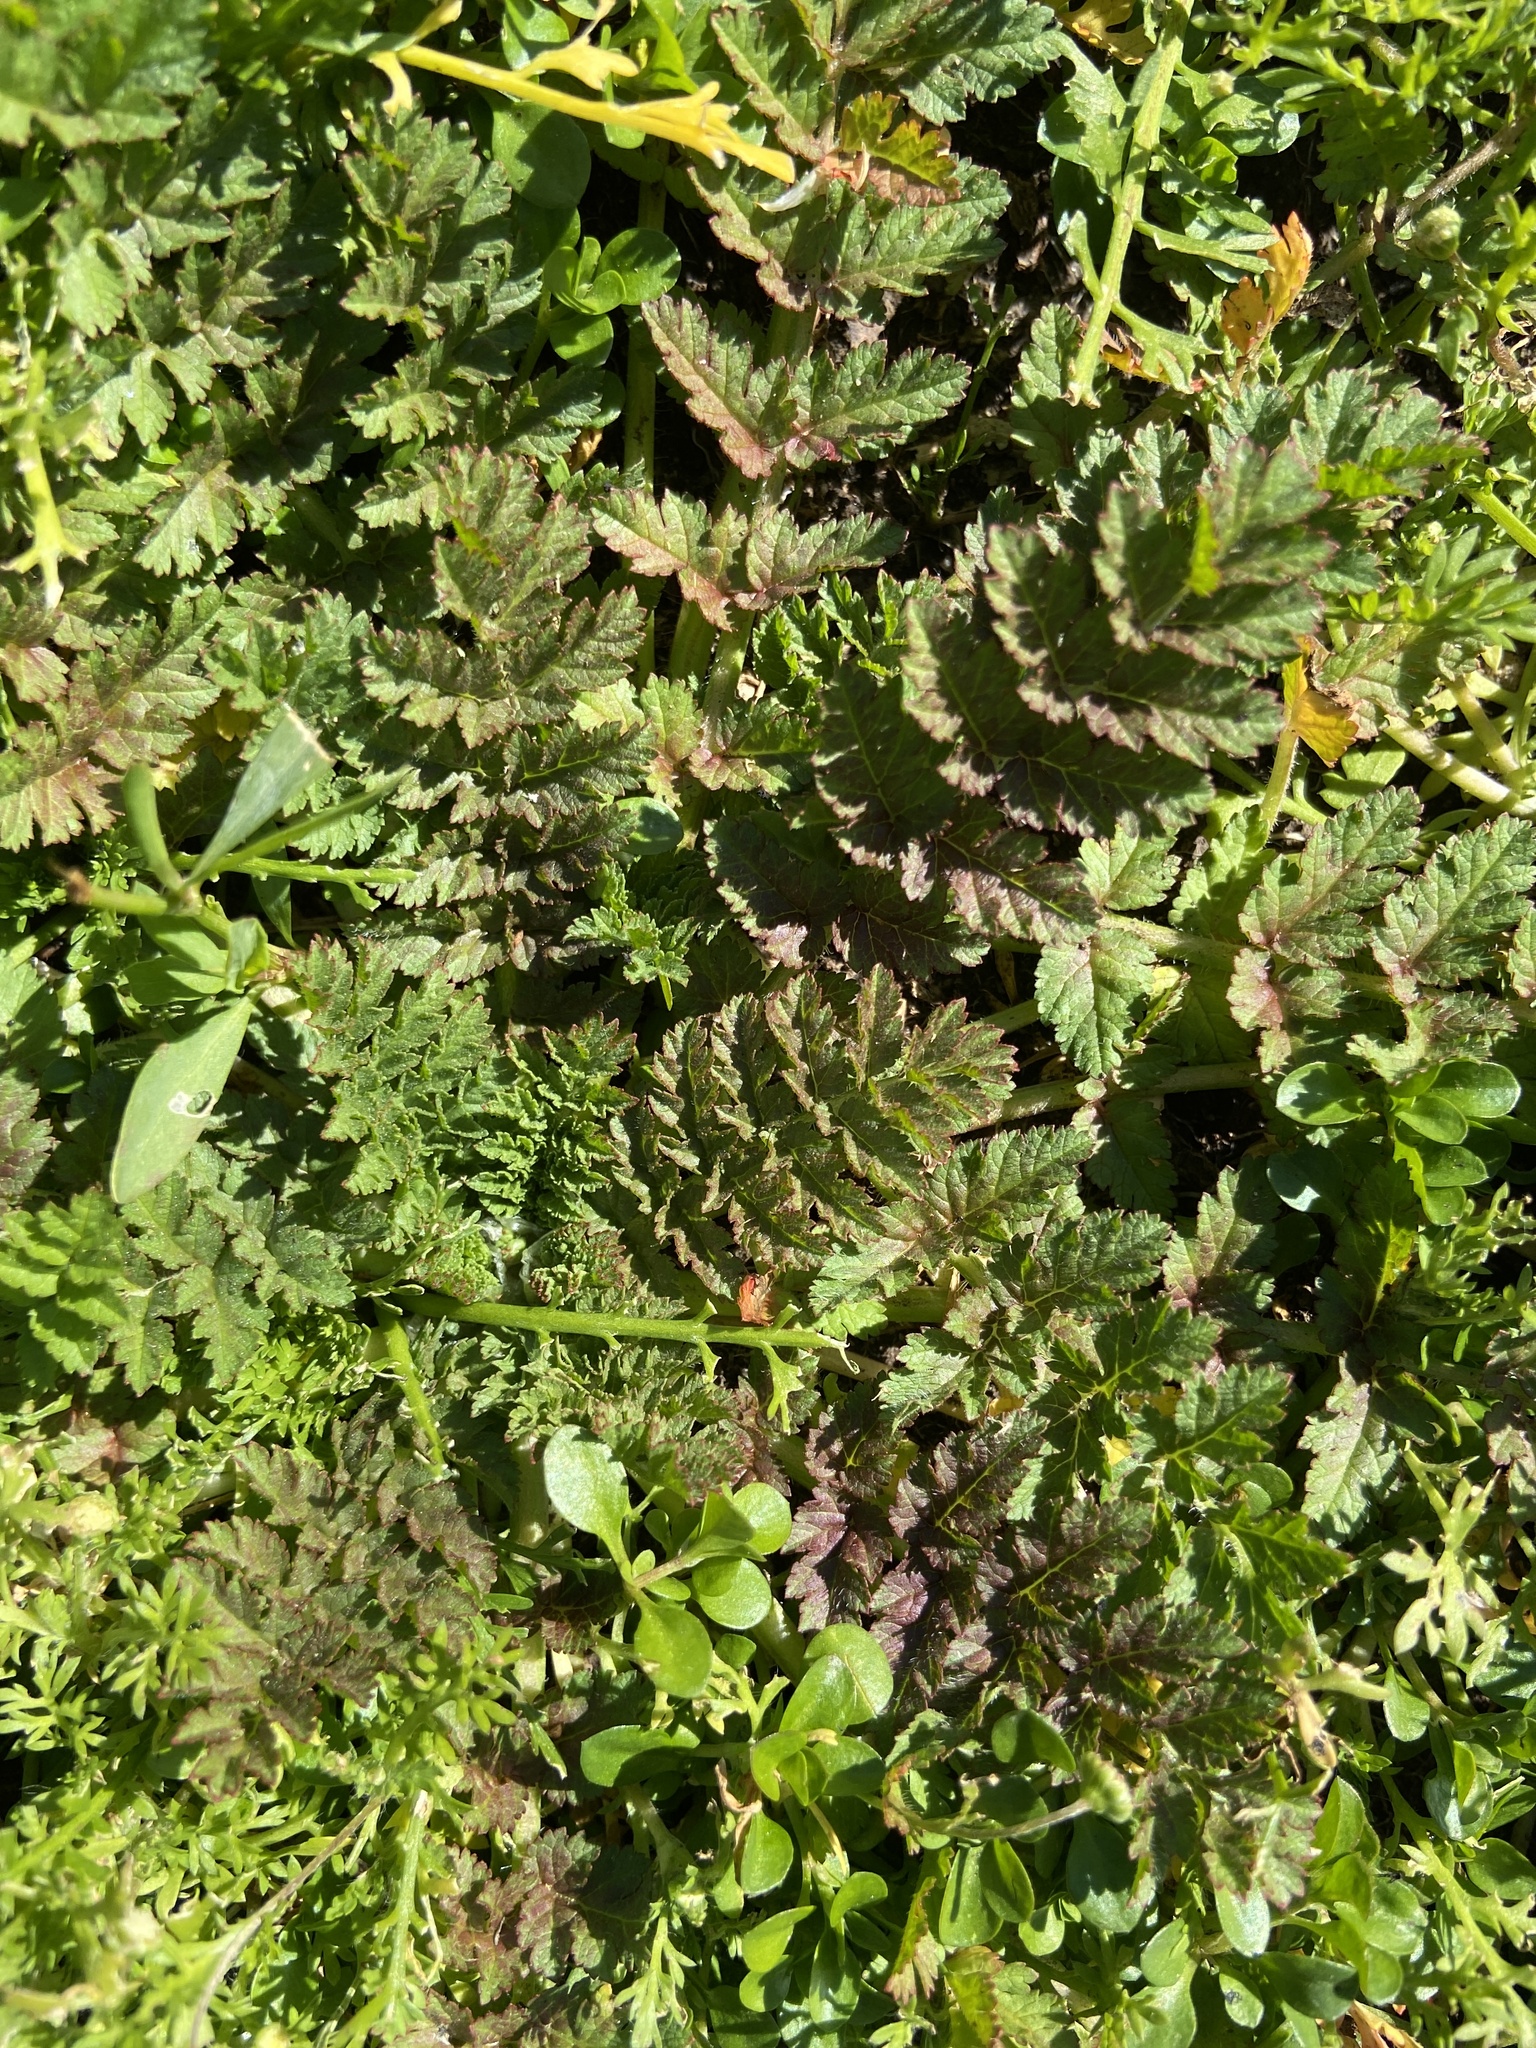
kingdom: Plantae
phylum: Tracheophyta
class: Magnoliopsida
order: Geraniales
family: Geraniaceae
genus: Erodium
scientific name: Erodium moschatum
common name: Musk stork's-bill
